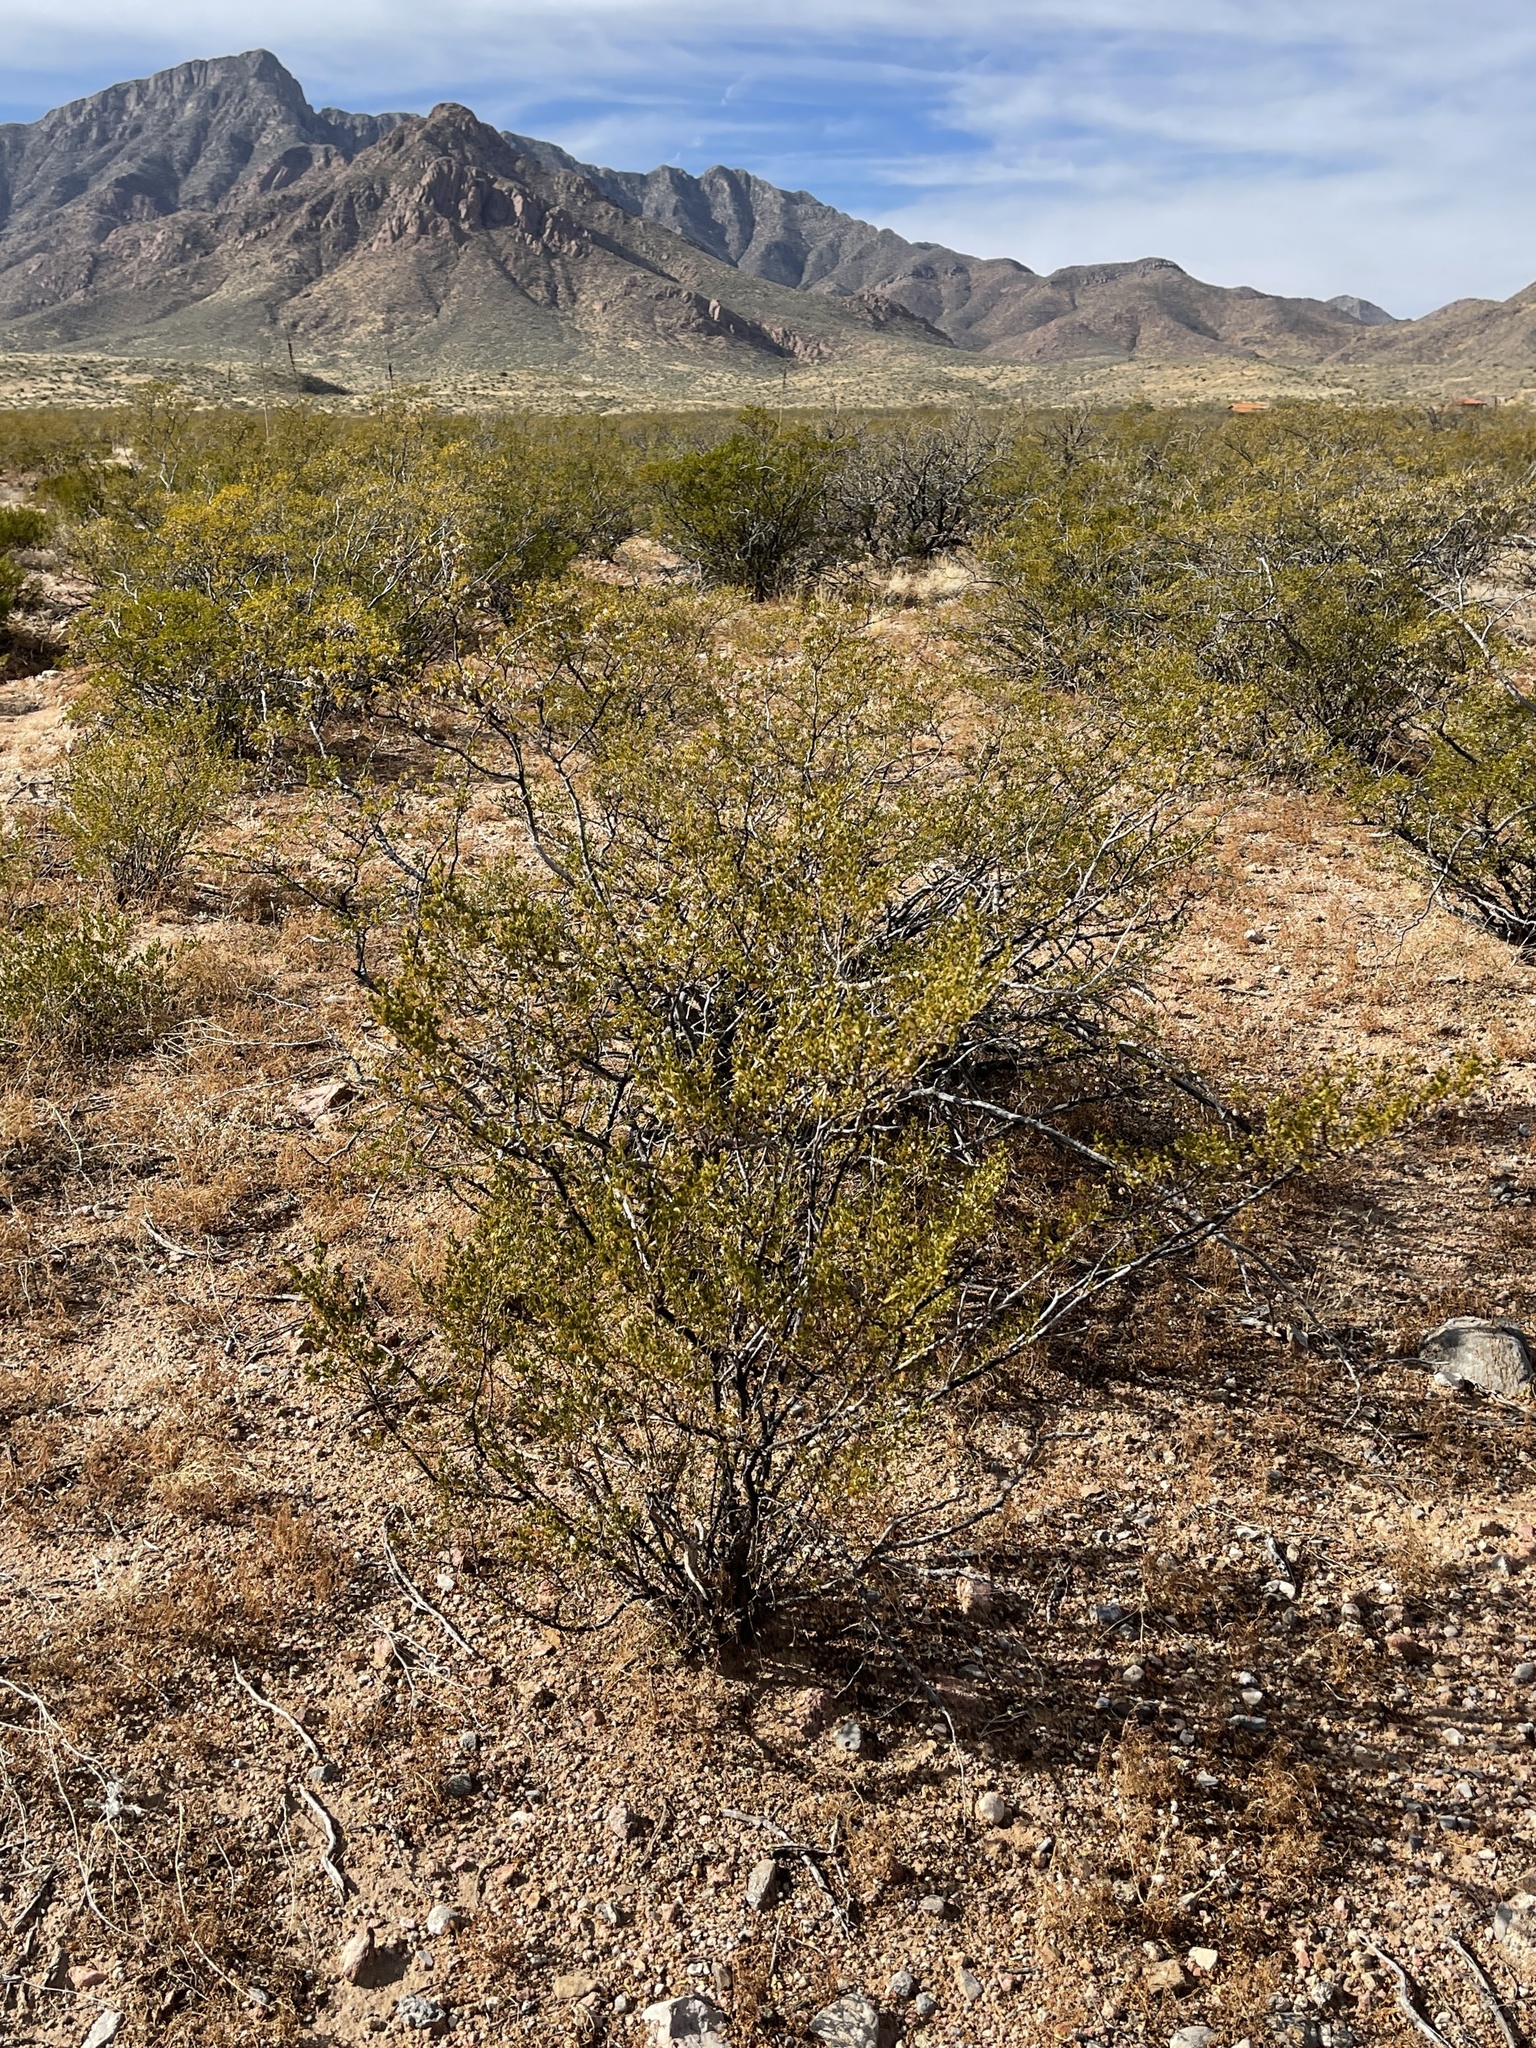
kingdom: Plantae
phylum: Tracheophyta
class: Magnoliopsida
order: Zygophyllales
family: Zygophyllaceae
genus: Larrea
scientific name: Larrea tridentata
